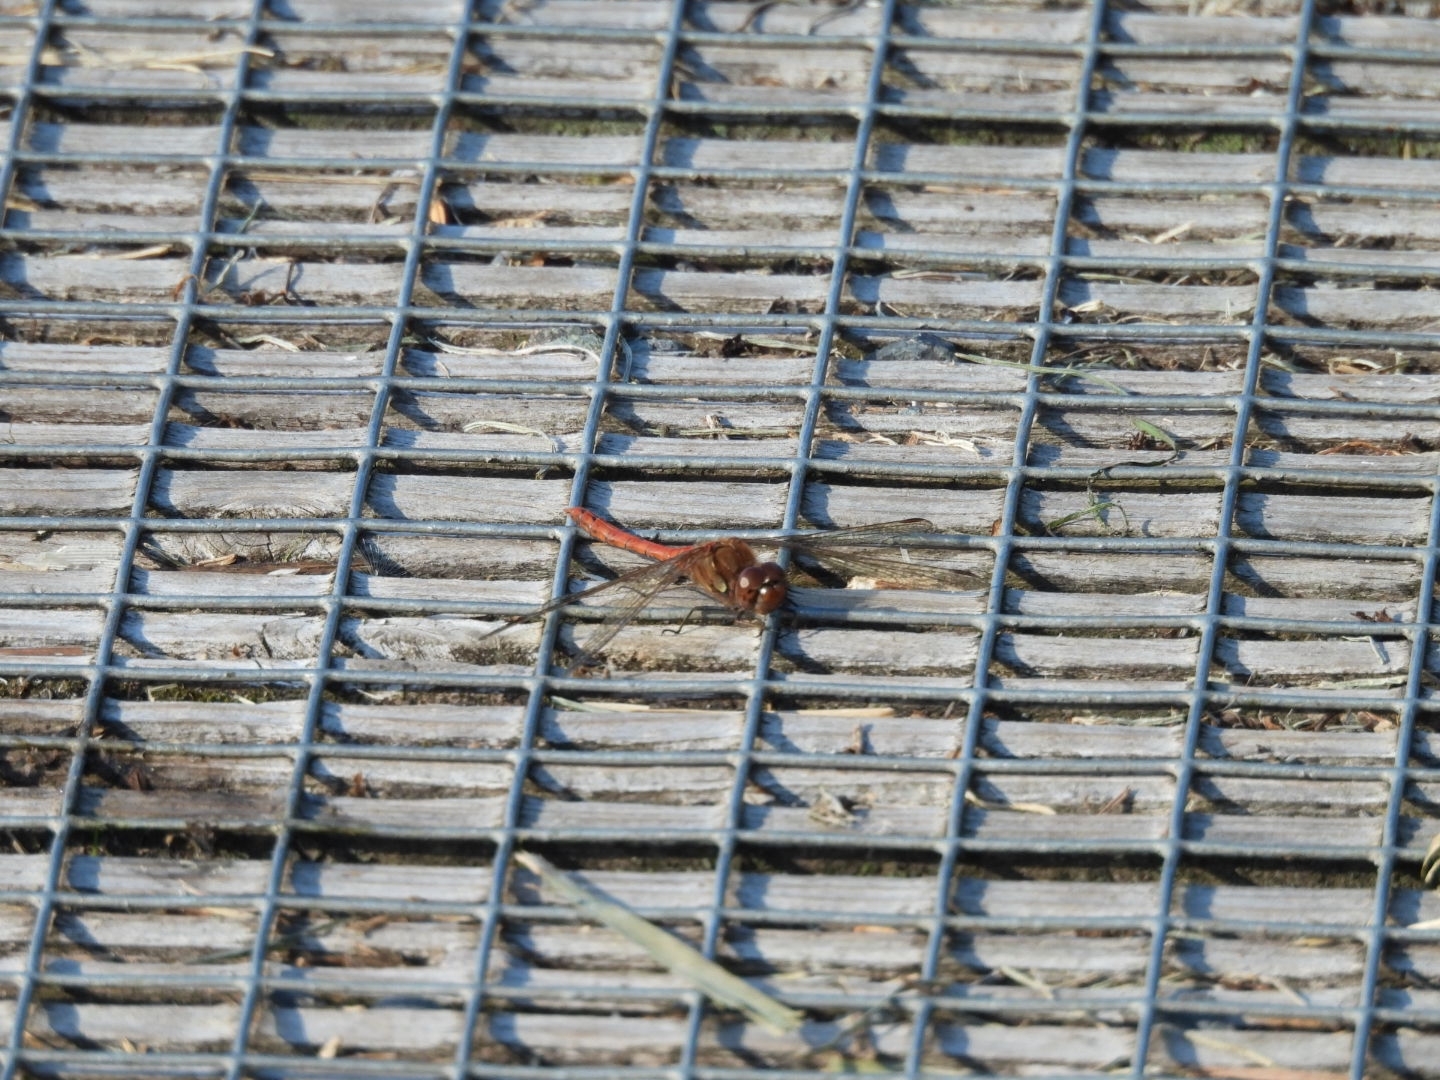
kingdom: Animalia
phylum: Arthropoda
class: Insecta
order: Odonata
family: Libellulidae
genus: Sympetrum
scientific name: Sympetrum striolatum
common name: Common darter
